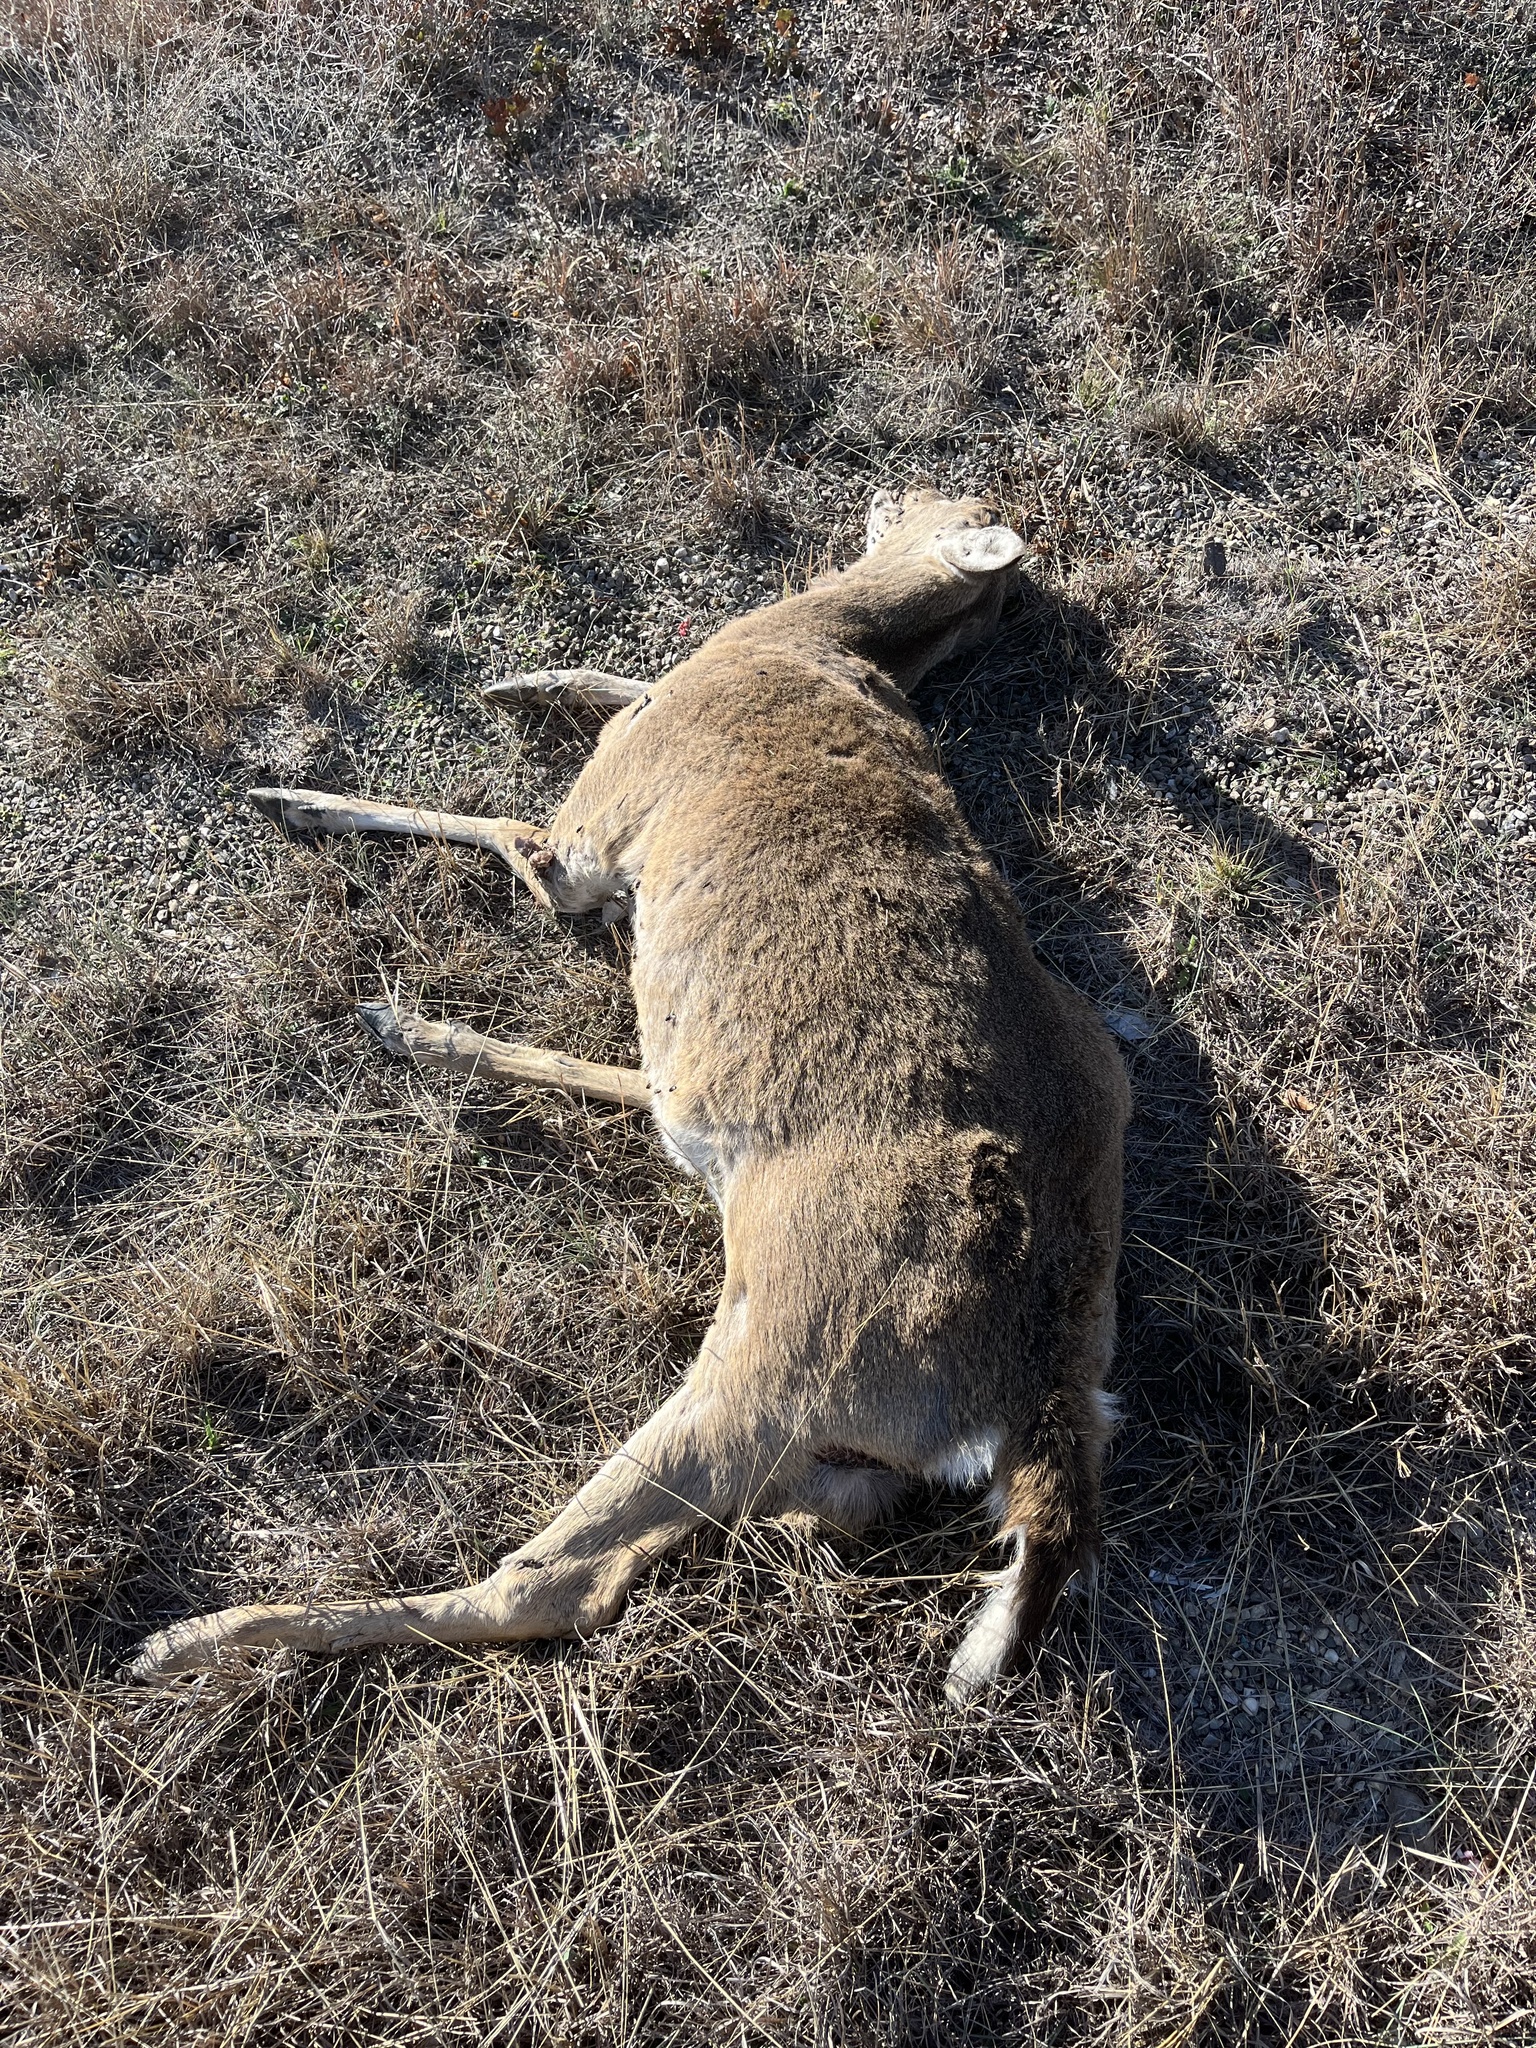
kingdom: Animalia
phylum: Chordata
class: Mammalia
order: Artiodactyla
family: Cervidae
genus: Odocoileus
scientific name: Odocoileus virginianus
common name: White-tailed deer
